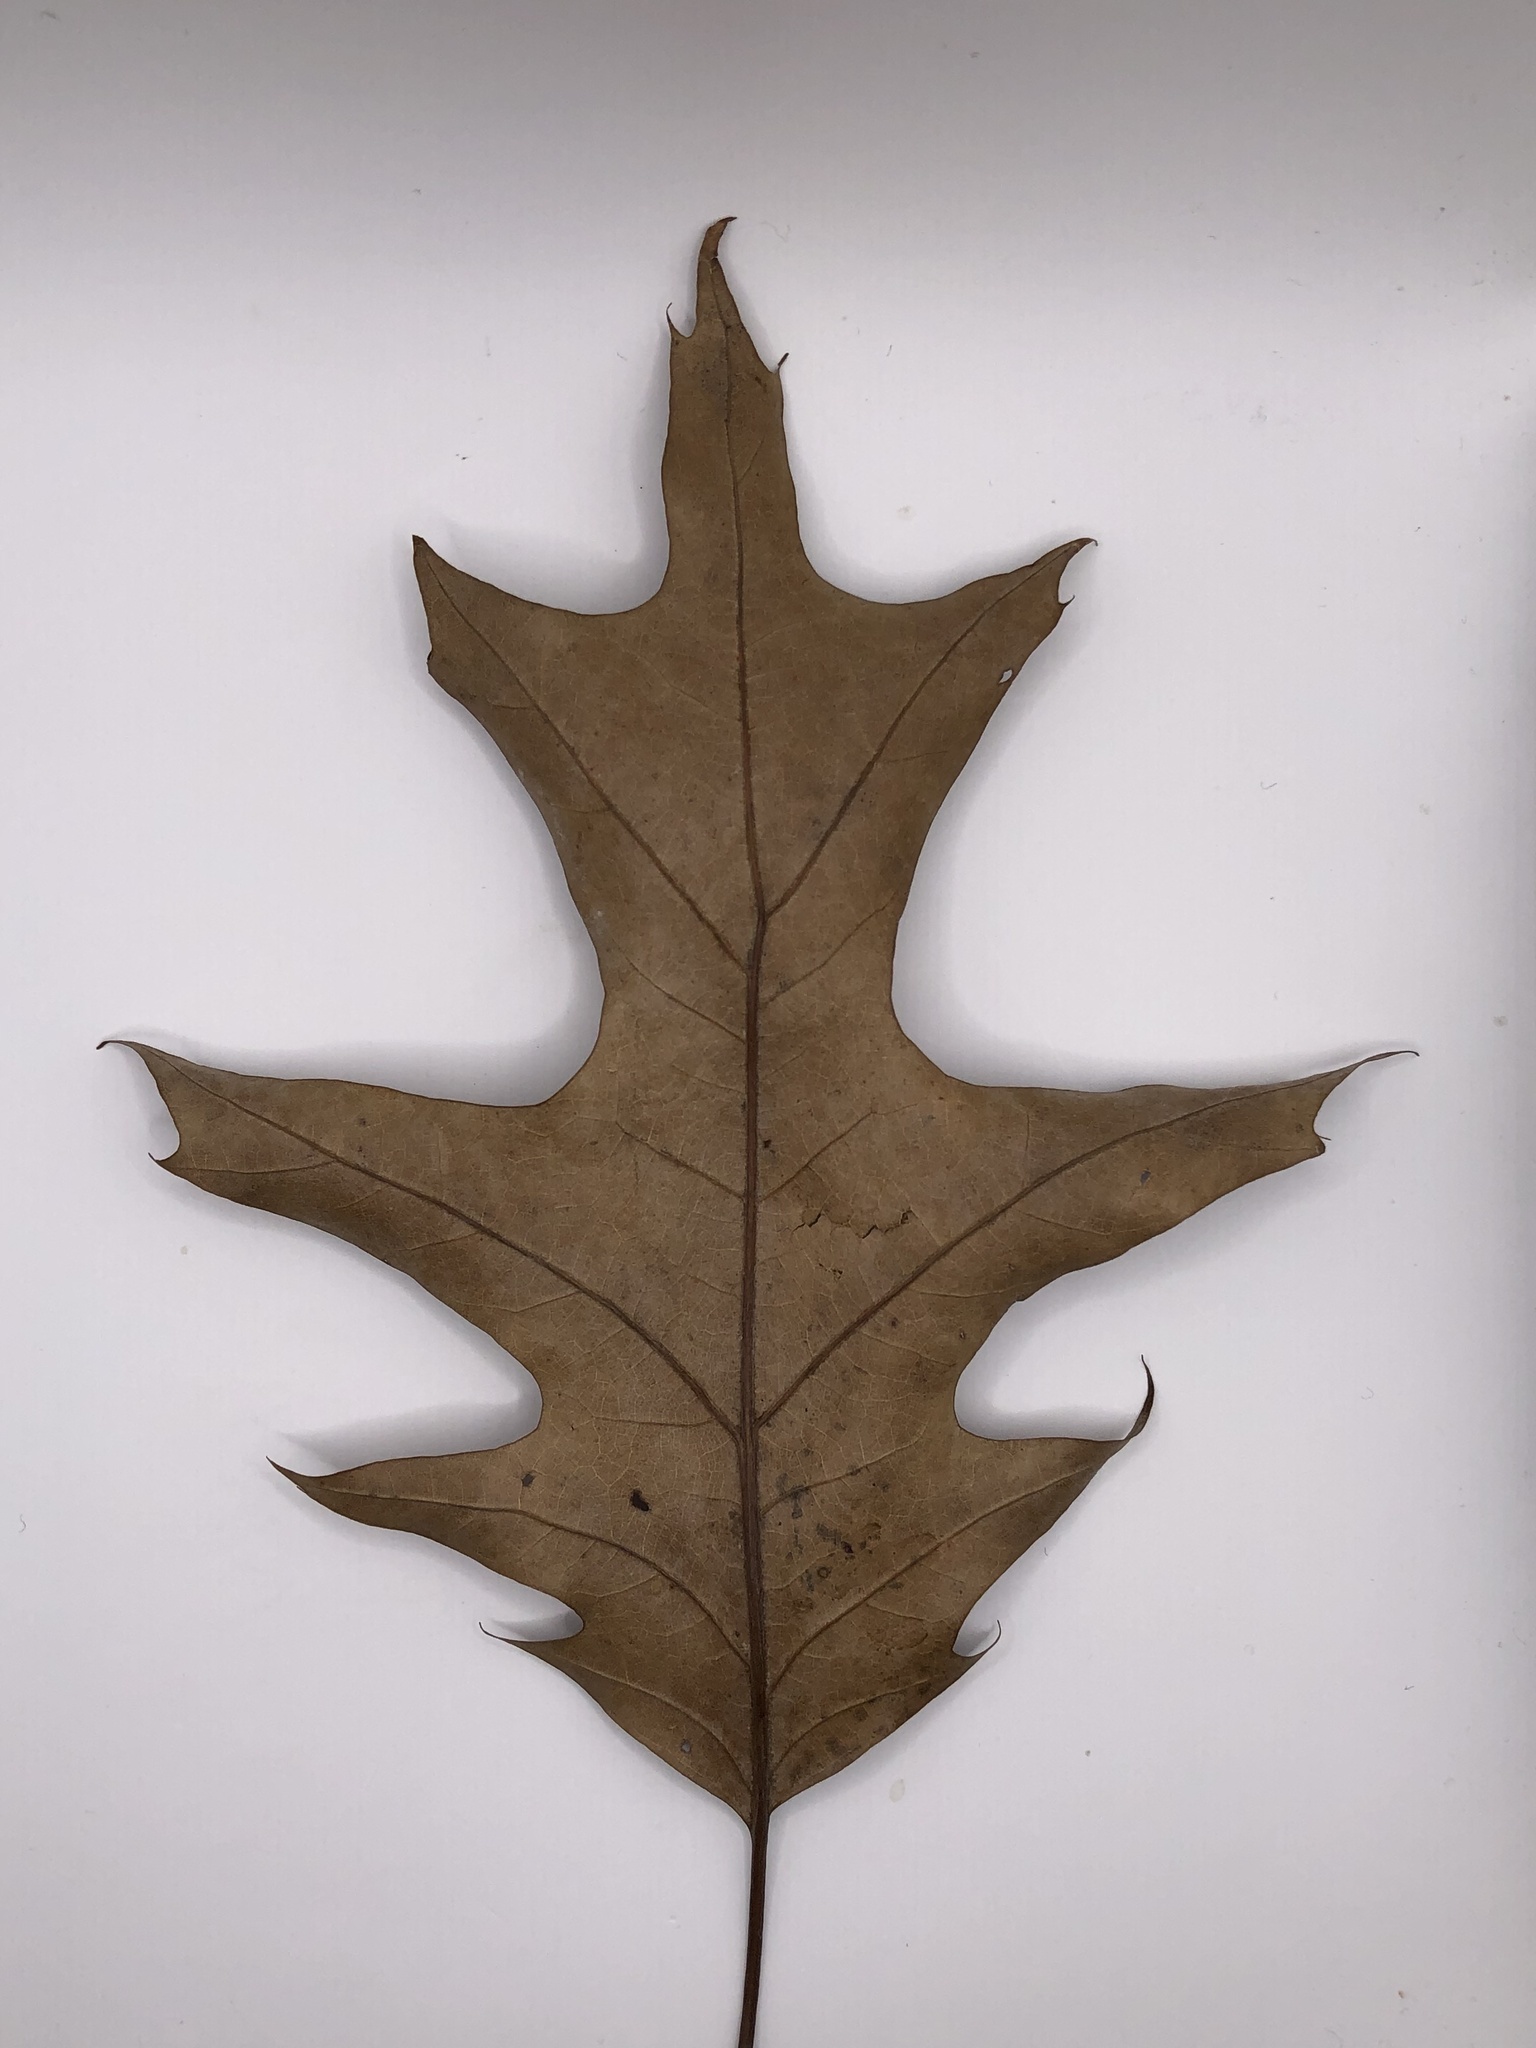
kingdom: Plantae
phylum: Tracheophyta
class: Magnoliopsida
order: Fagales
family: Fagaceae
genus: Quercus
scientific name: Quercus rubra
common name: Red oak
